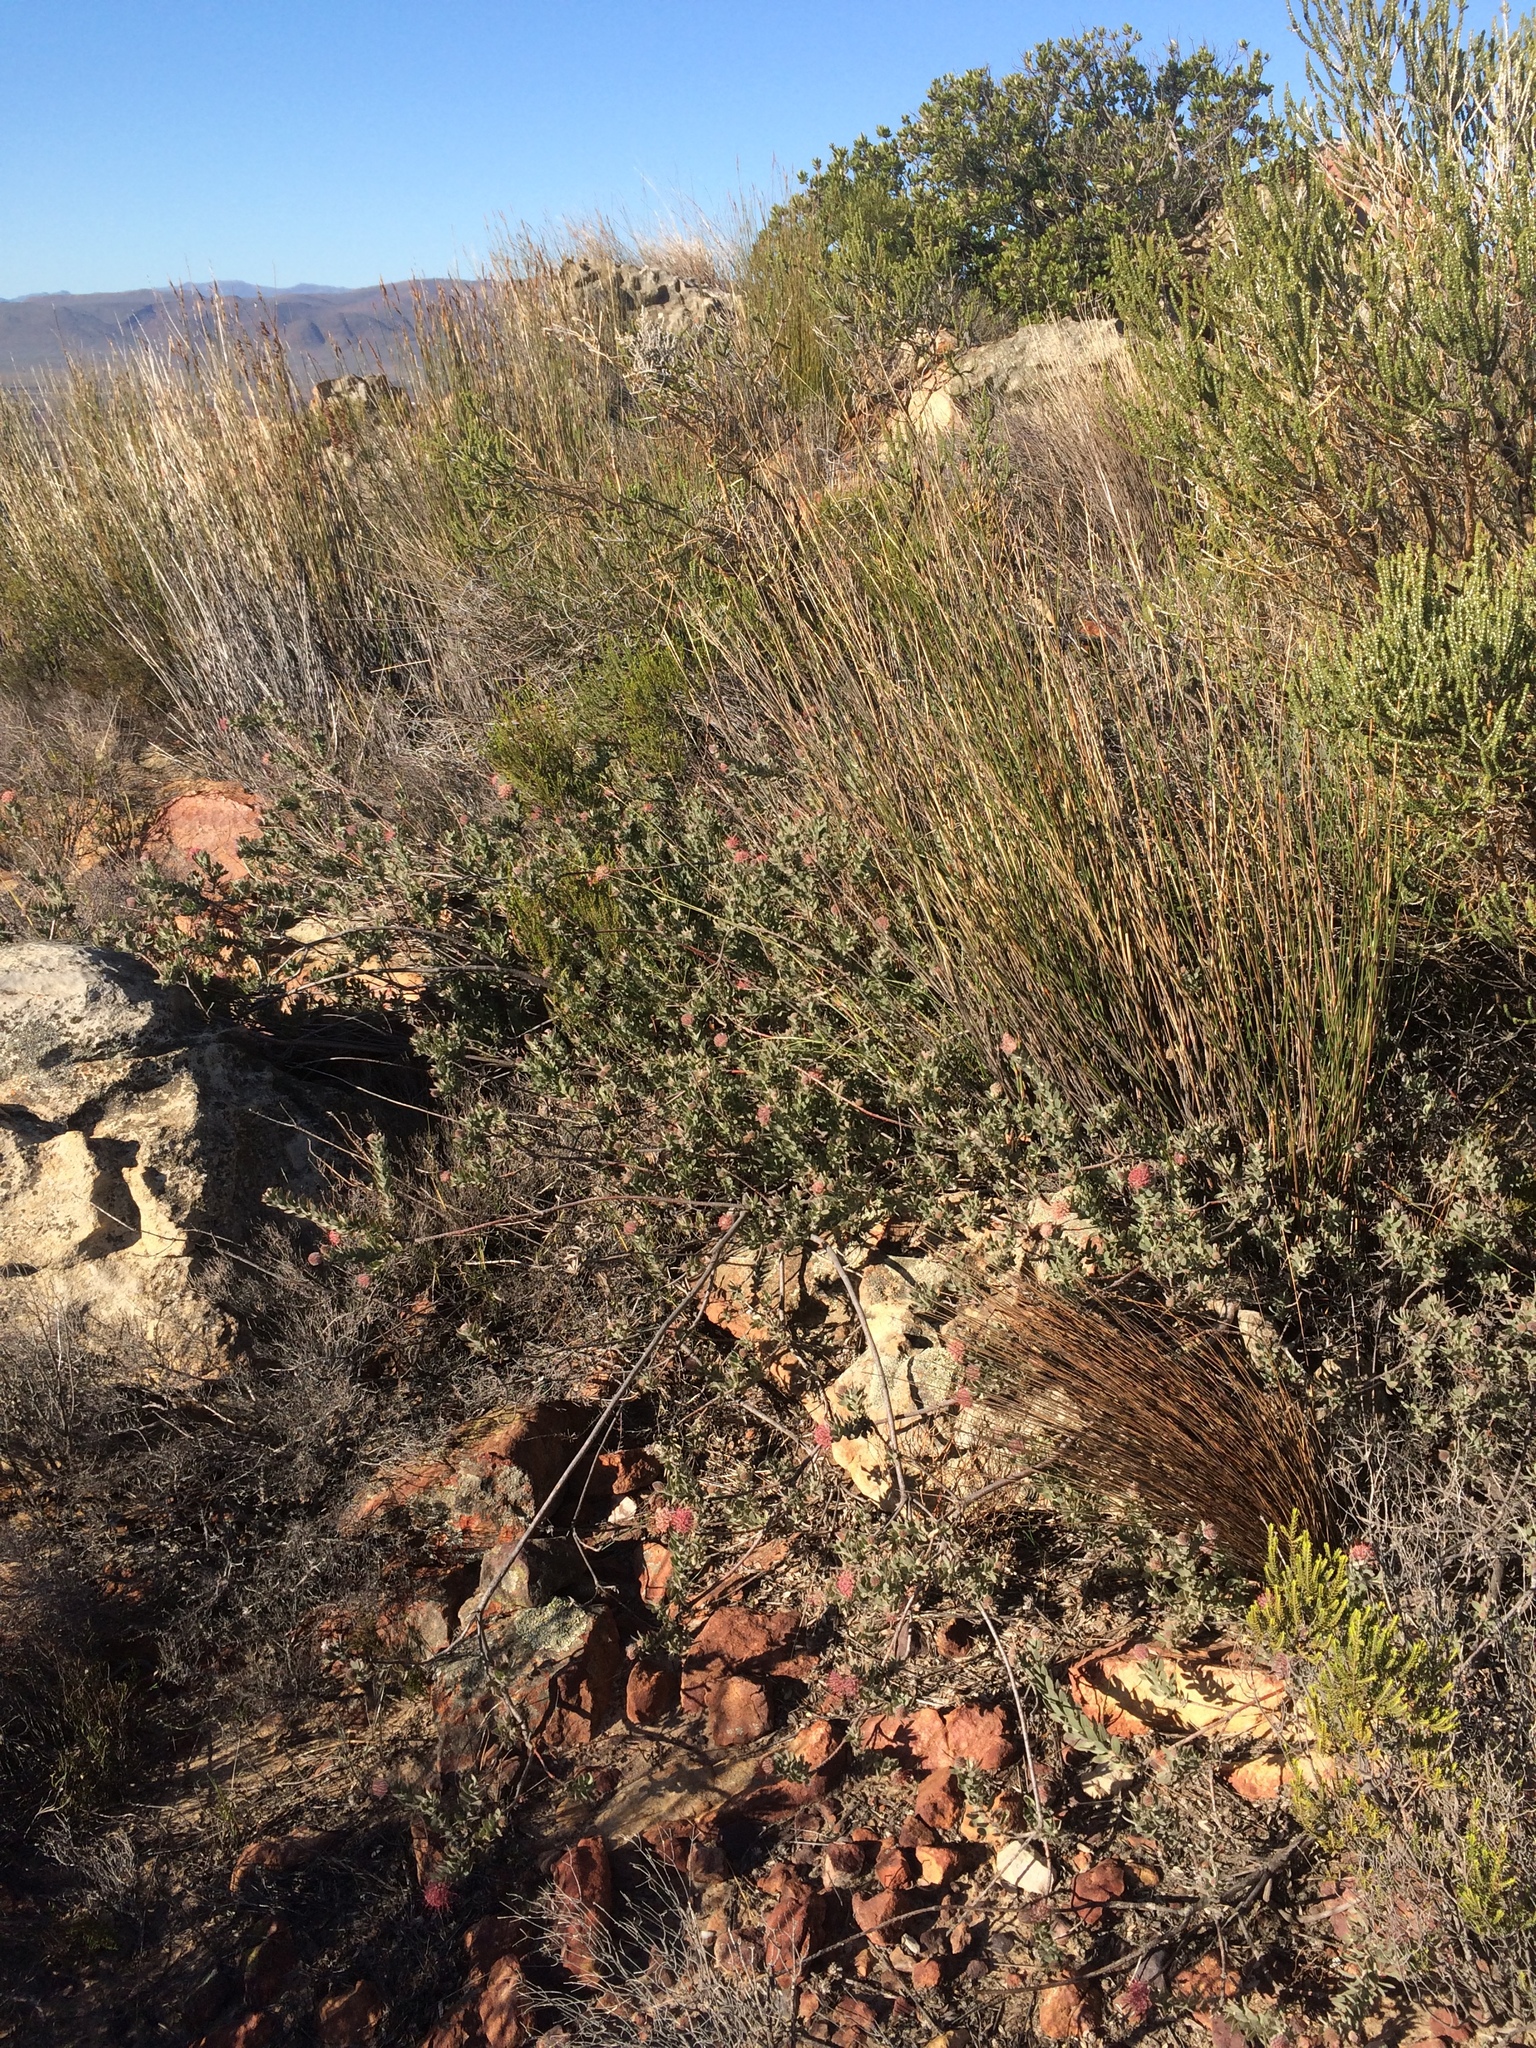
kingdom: Plantae
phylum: Tracheophyta
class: Magnoliopsida
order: Proteales
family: Proteaceae
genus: Leucospermum
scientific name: Leucospermum calligerum
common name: Arid pincushion
